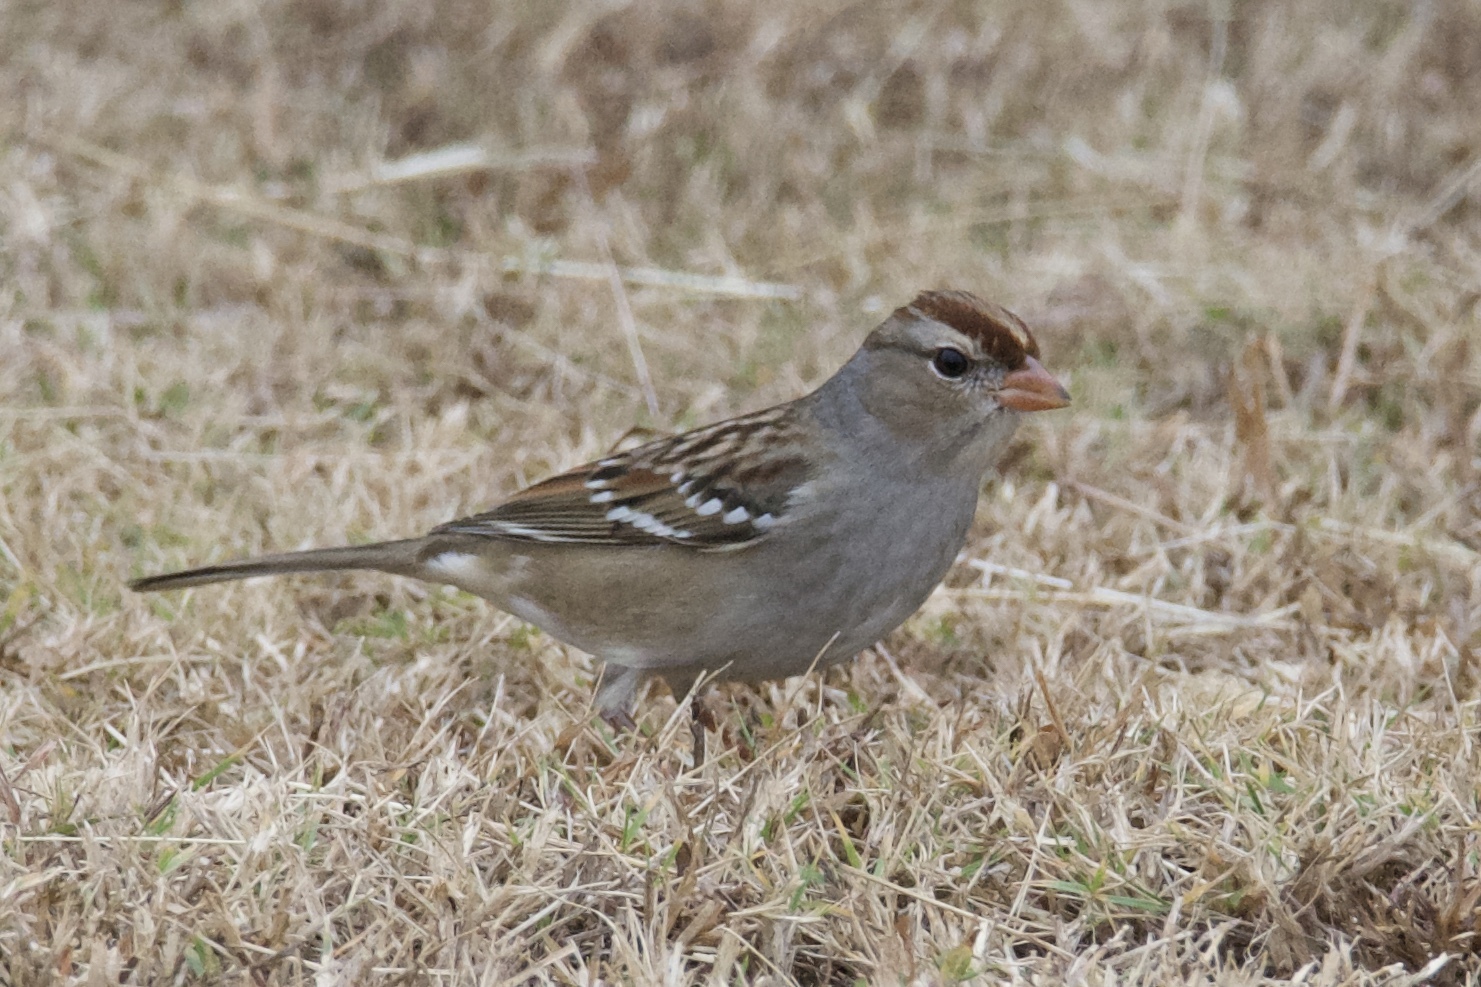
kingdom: Animalia
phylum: Chordata
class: Aves
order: Passeriformes
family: Passerellidae
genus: Zonotrichia
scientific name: Zonotrichia leucophrys
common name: White-crowned sparrow
